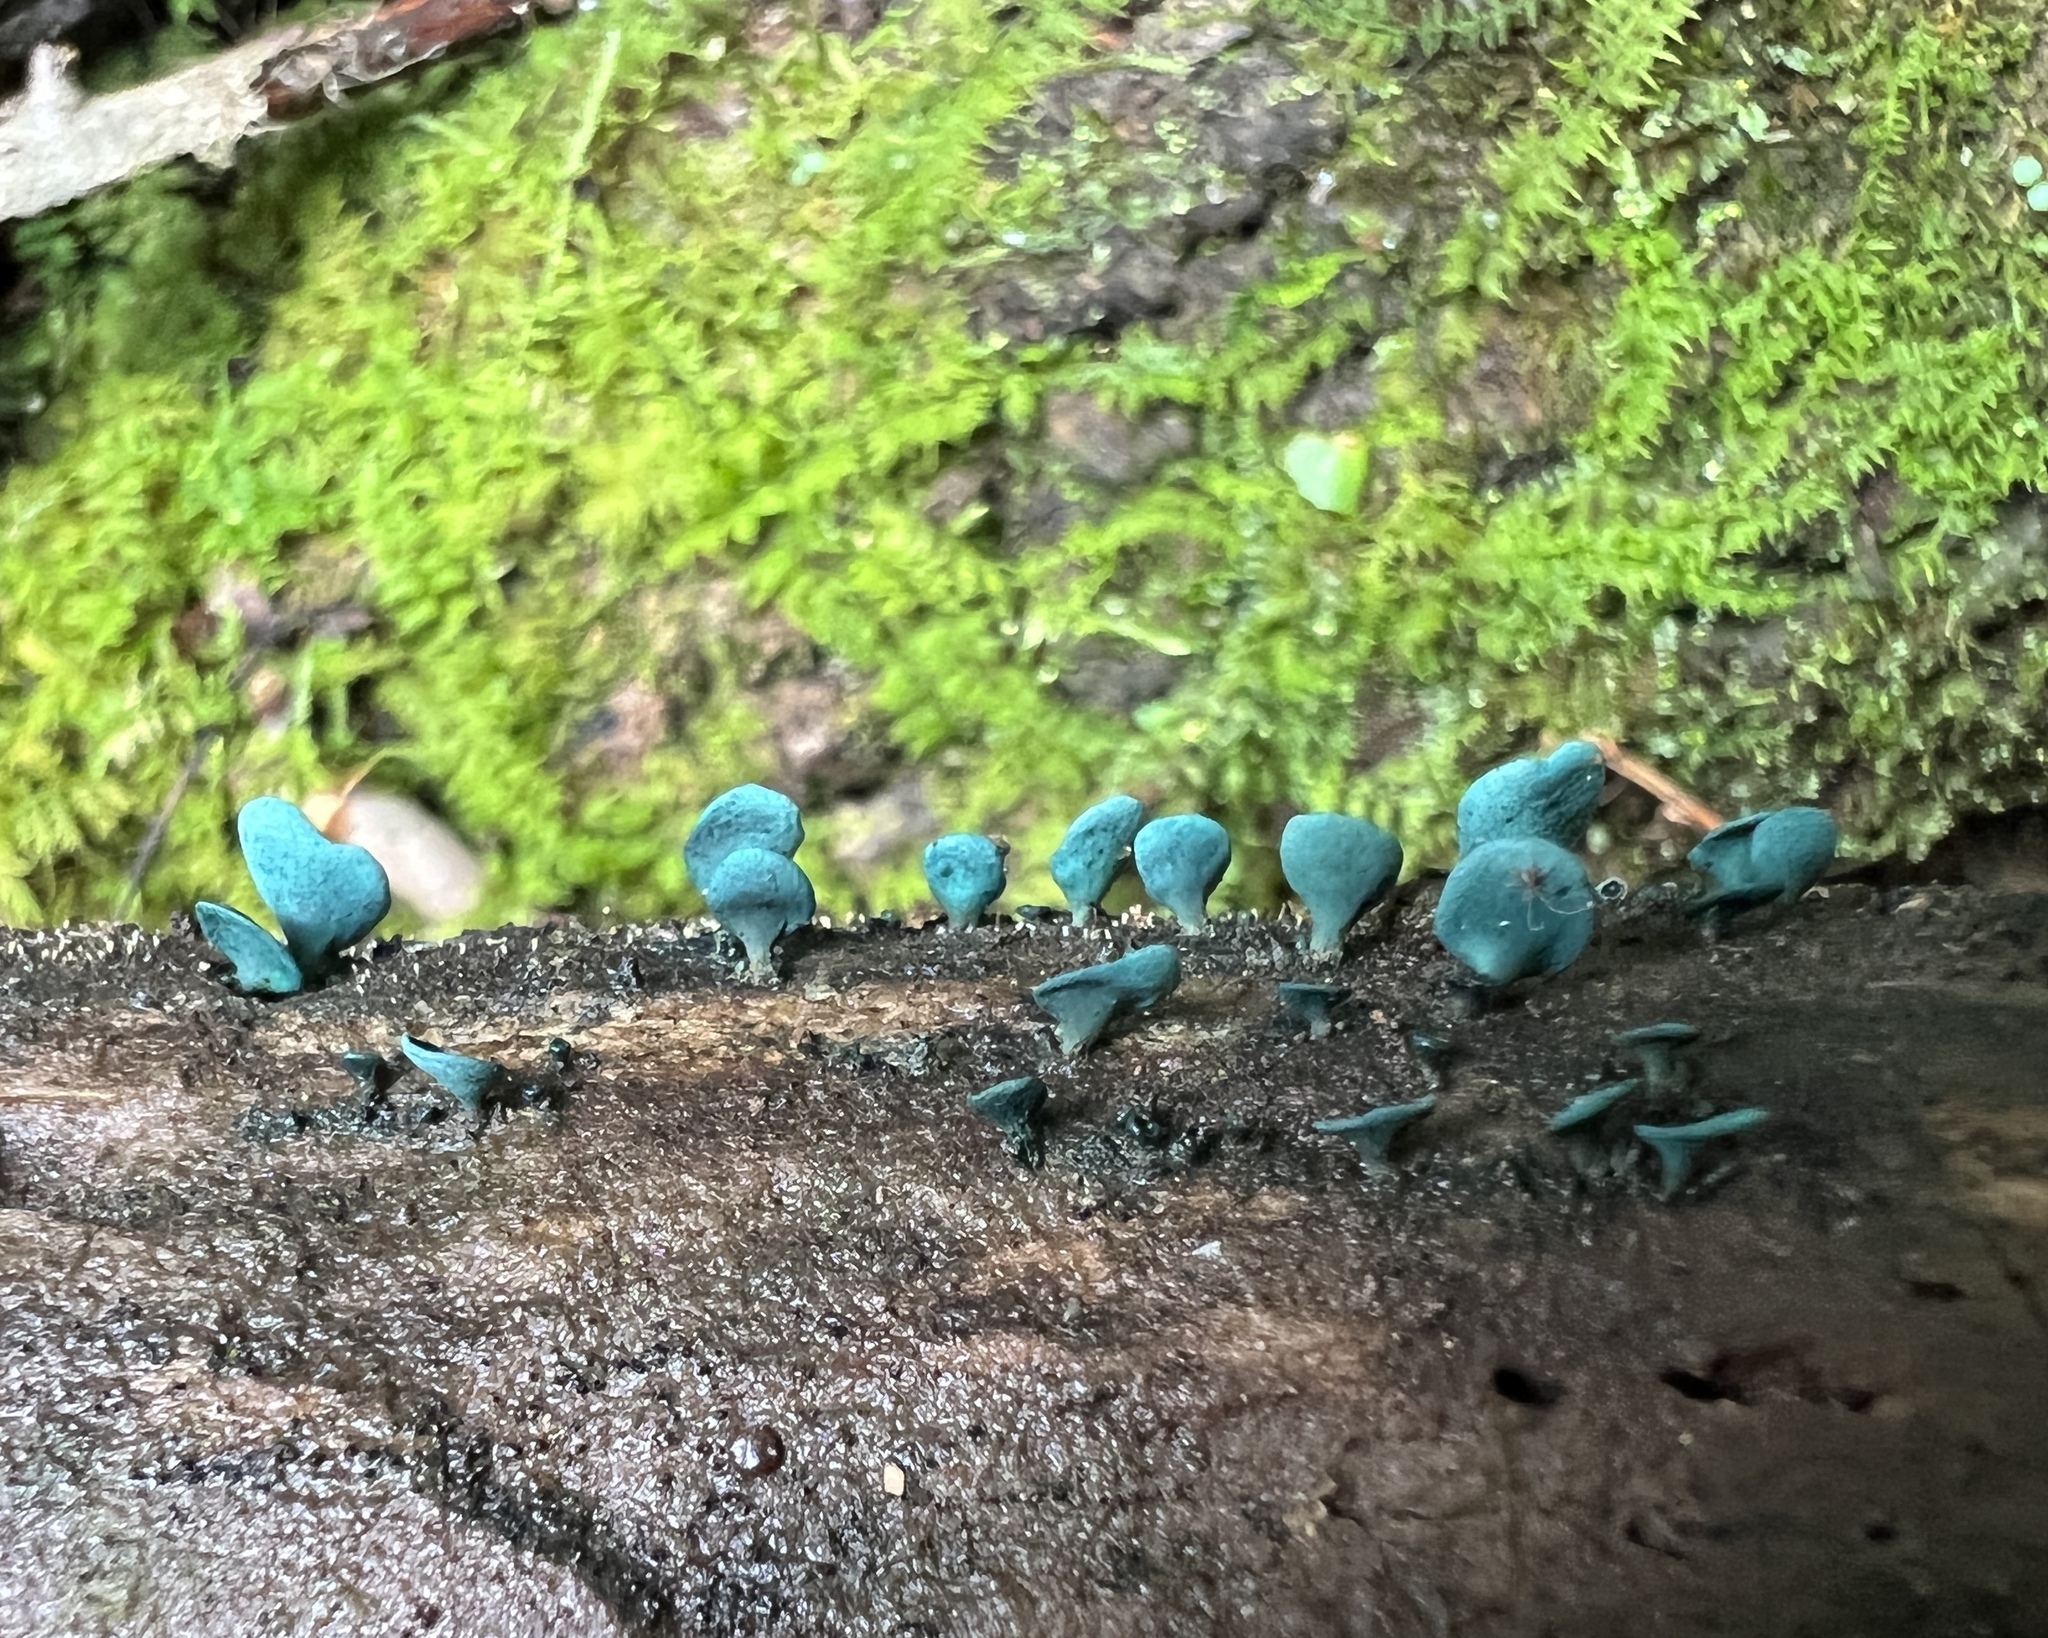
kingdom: Fungi
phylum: Ascomycota
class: Leotiomycetes
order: Helotiales
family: Chlorociboriaceae
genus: Chlorociboria
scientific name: Chlorociboria aeruginascens
